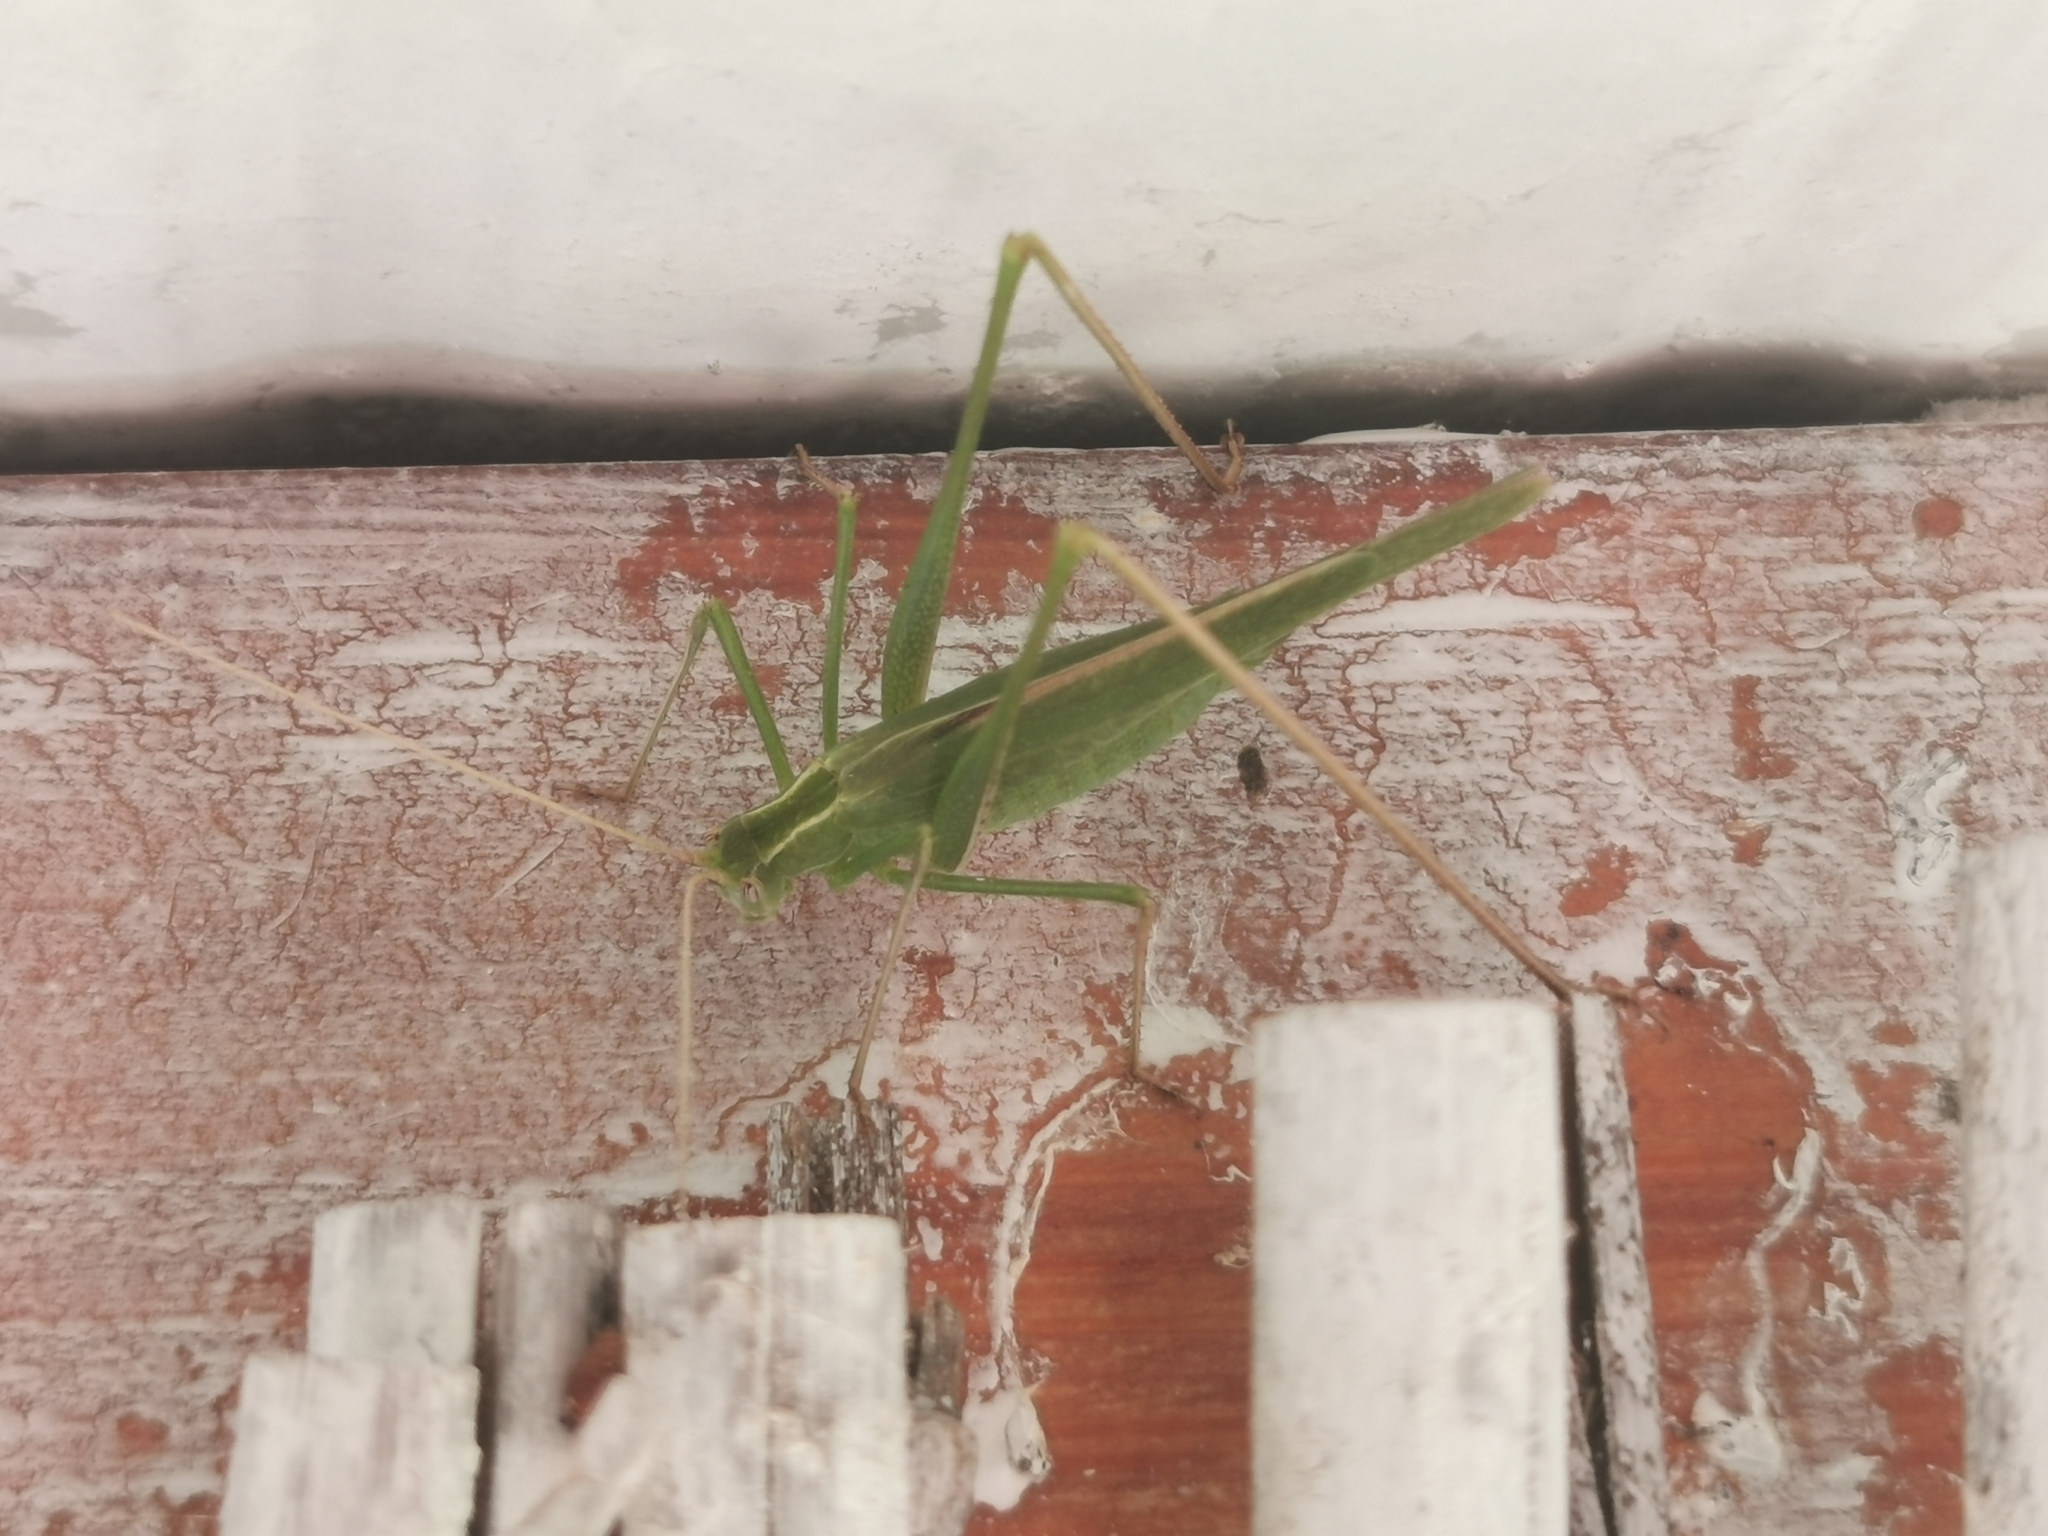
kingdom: Animalia
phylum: Arthropoda
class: Insecta
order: Orthoptera
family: Tettigoniidae
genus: Tylopsis
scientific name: Tylopsis lilifolia
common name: Lily bush-cricket
